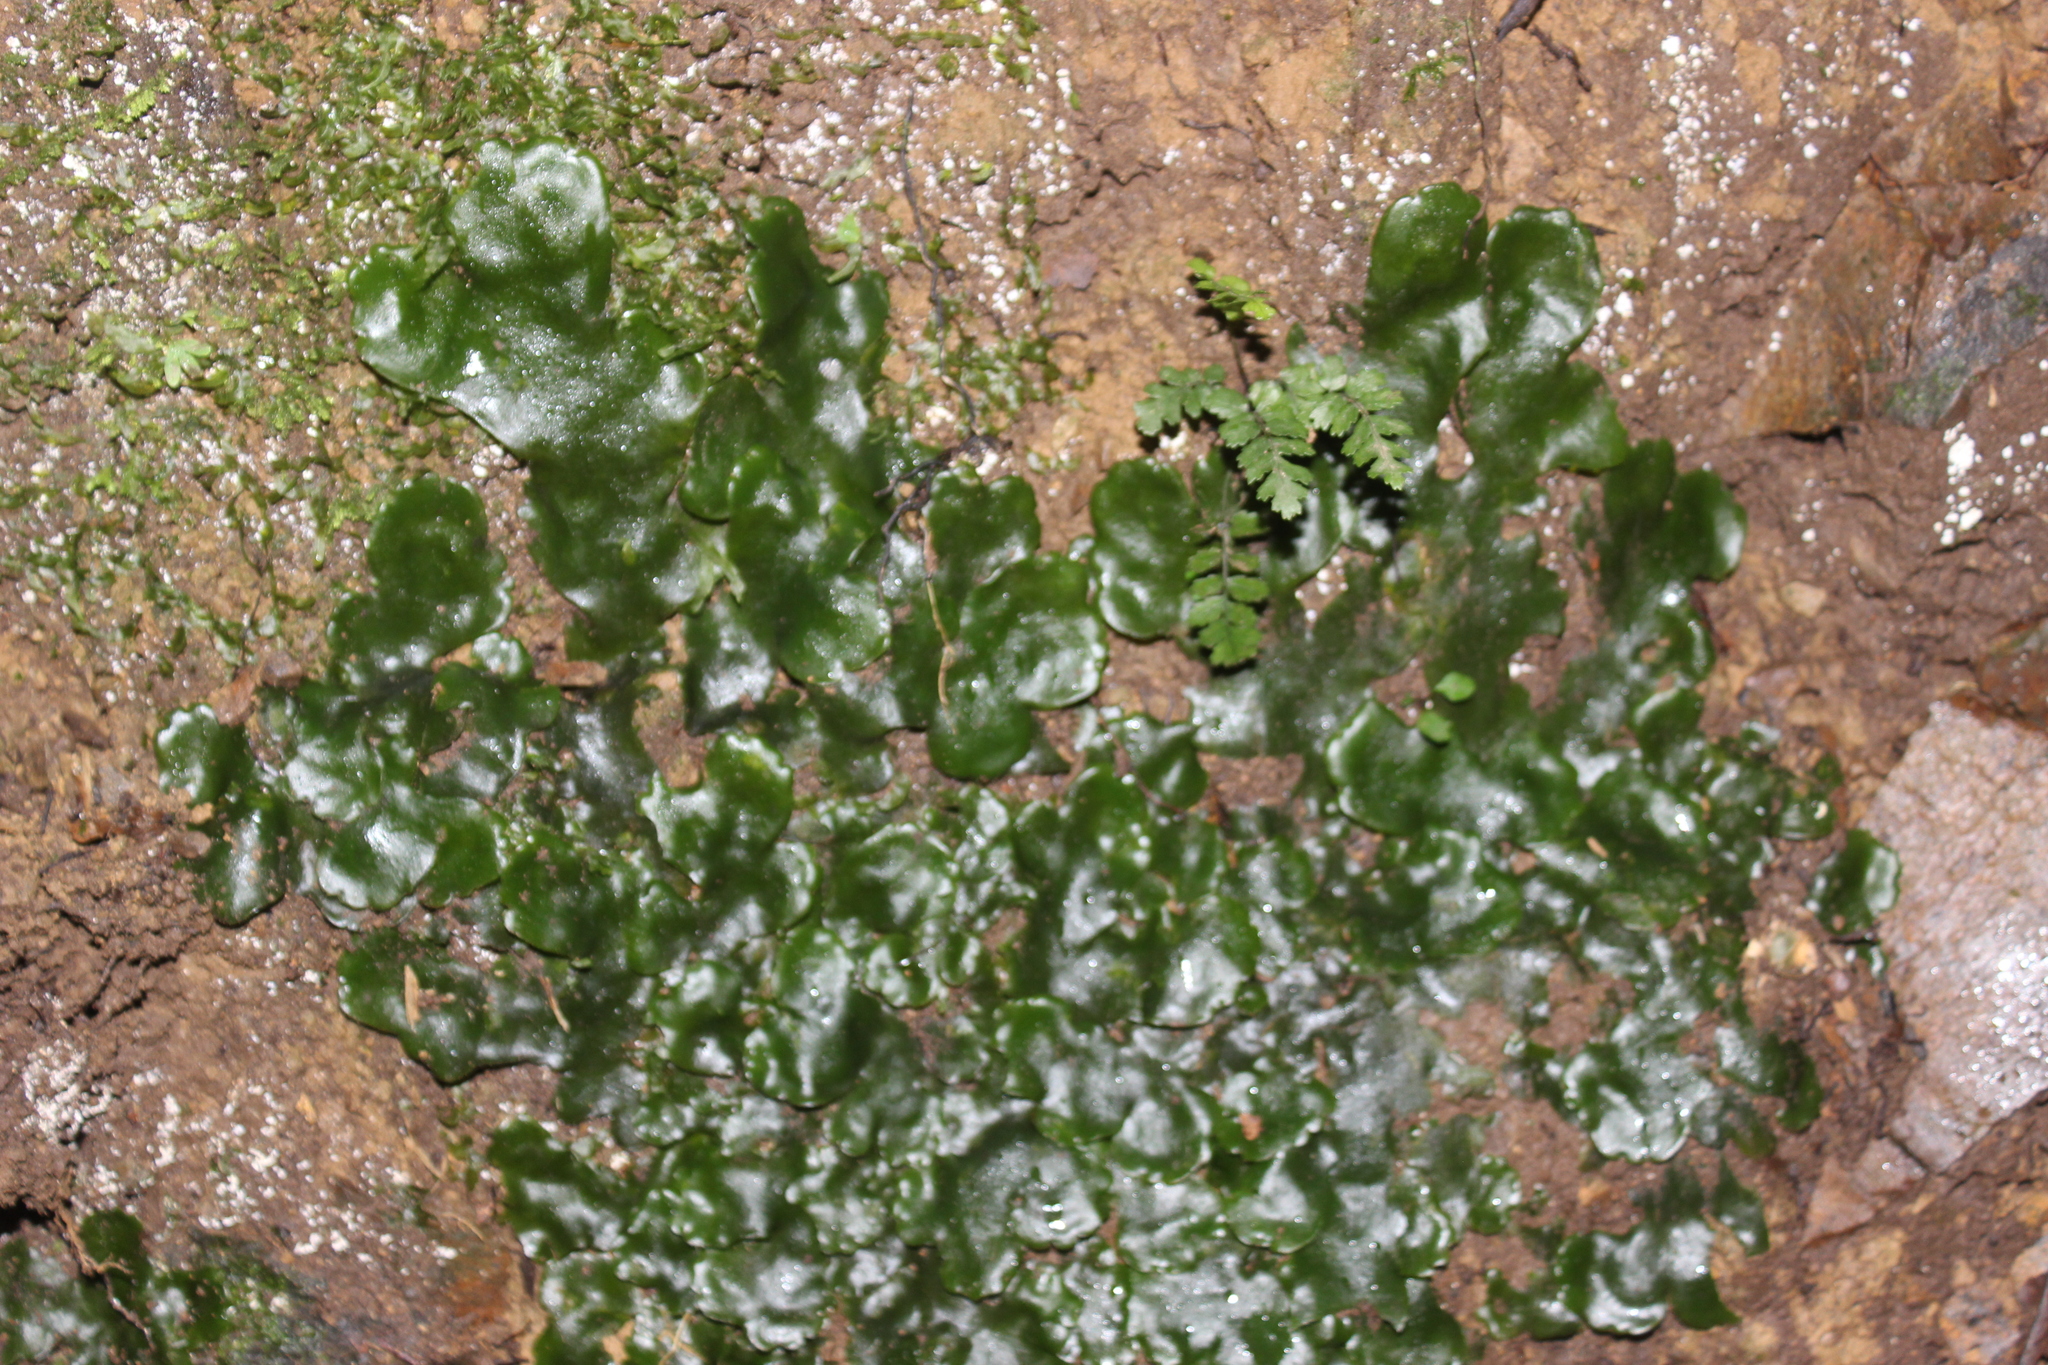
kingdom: Plantae
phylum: Marchantiophyta
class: Marchantiopsida
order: Marchantiales
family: Monocleaceae
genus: Monoclea
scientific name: Monoclea forsteri
